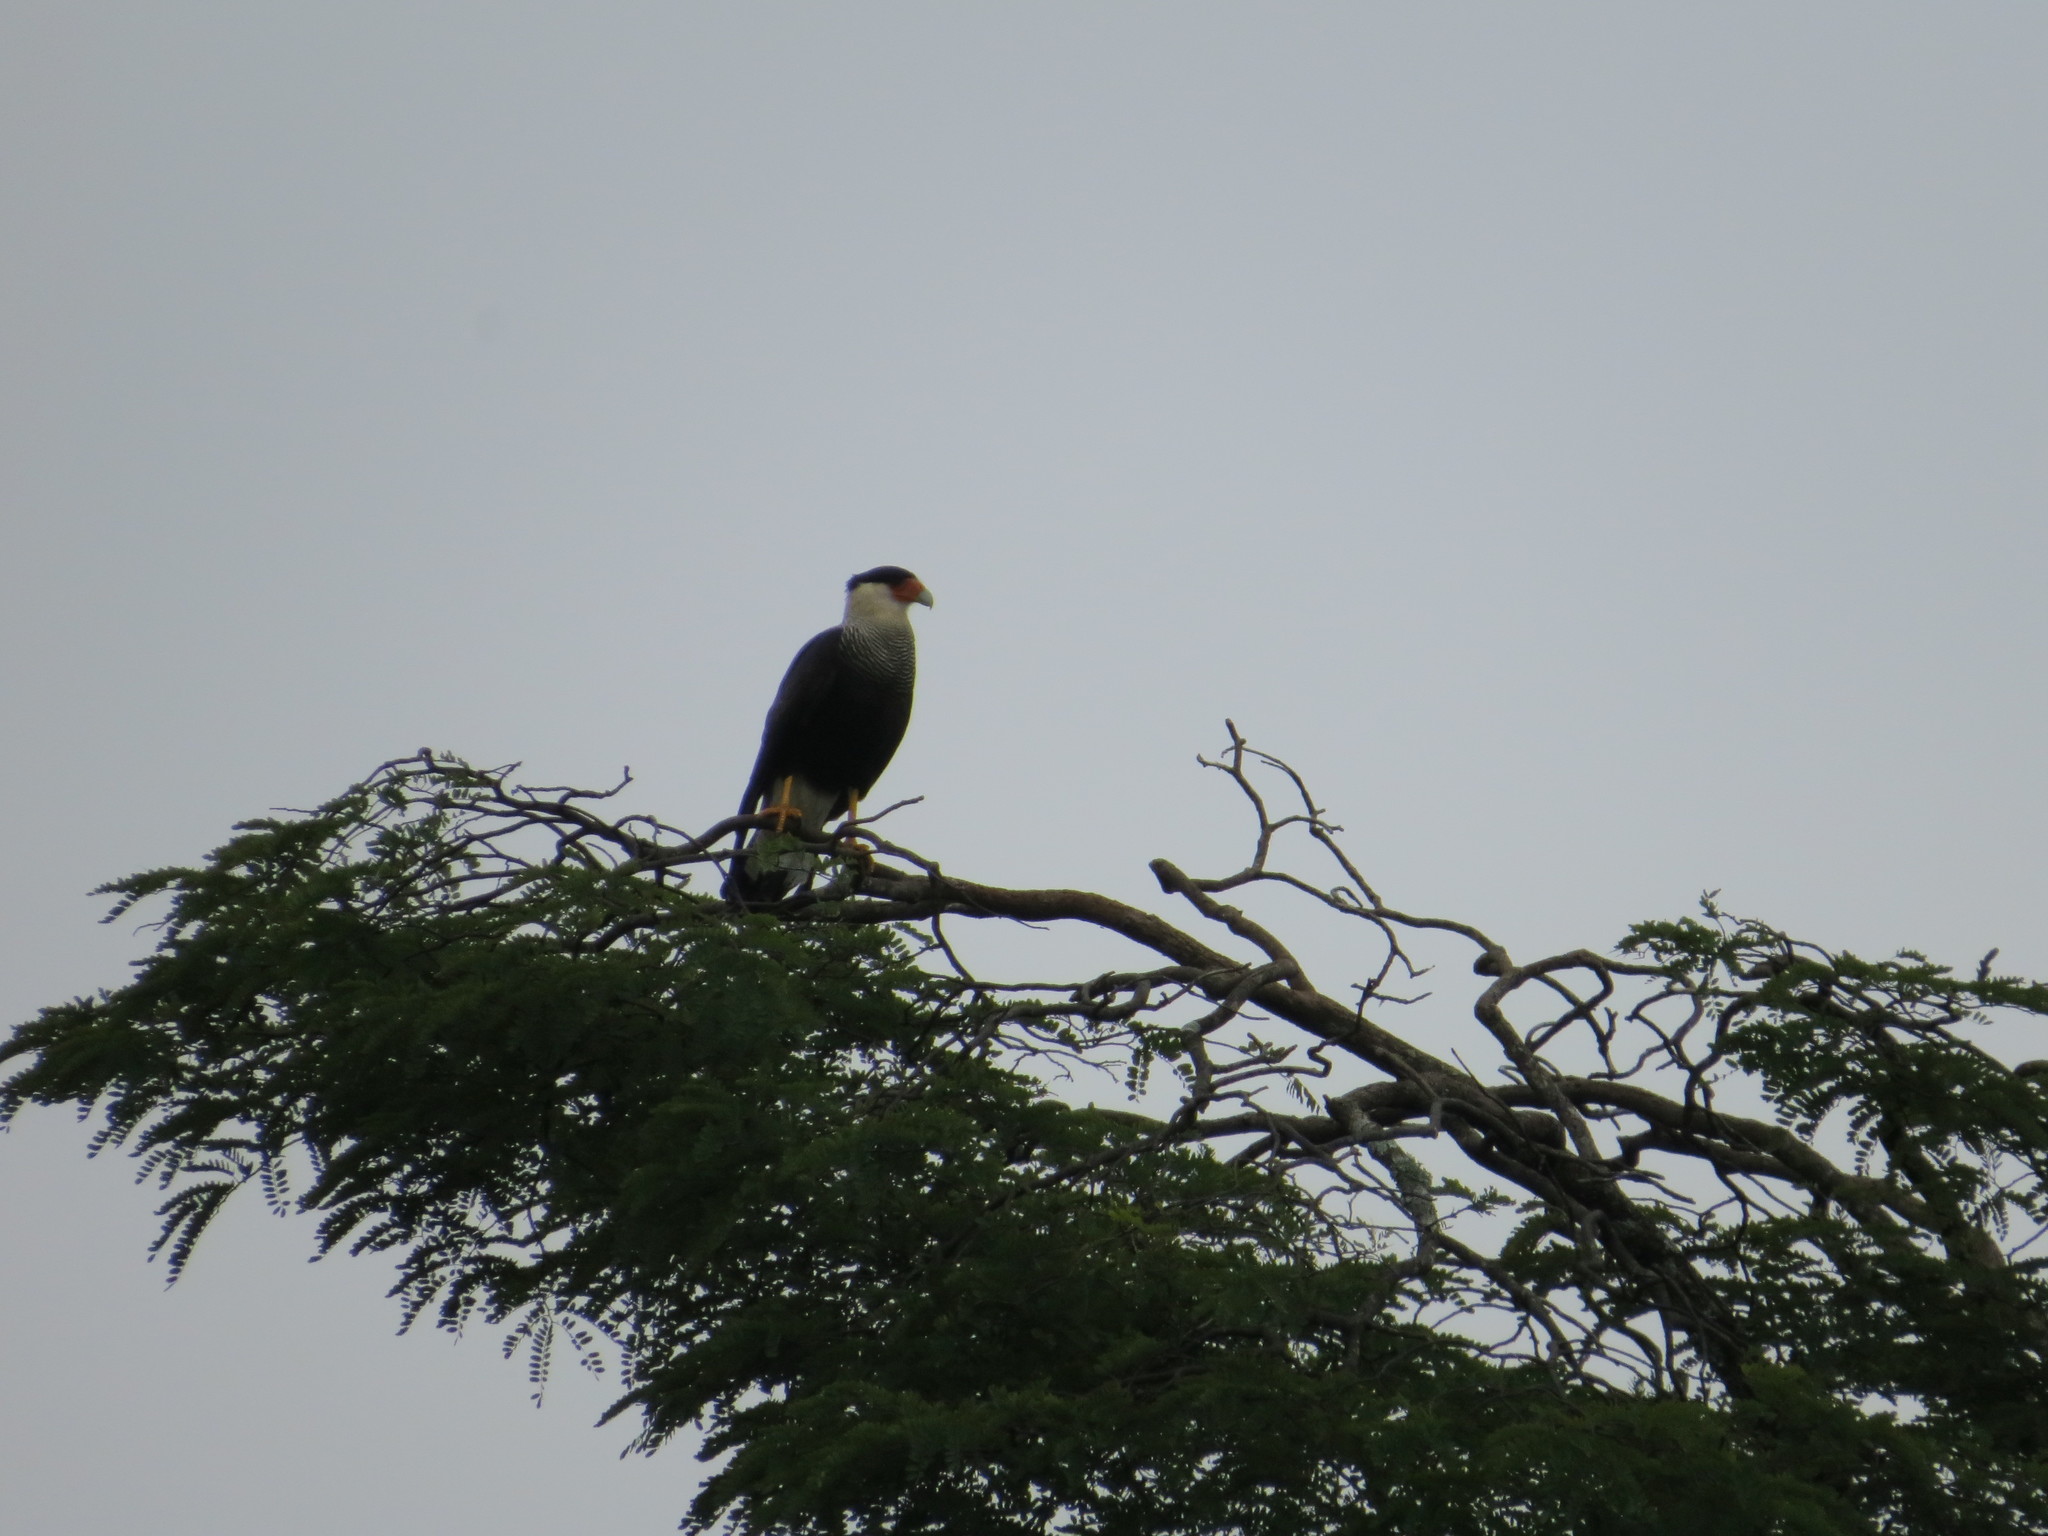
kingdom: Animalia
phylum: Chordata
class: Aves
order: Falconiformes
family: Falconidae
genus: Caracara
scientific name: Caracara plancus
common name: Southern caracara
